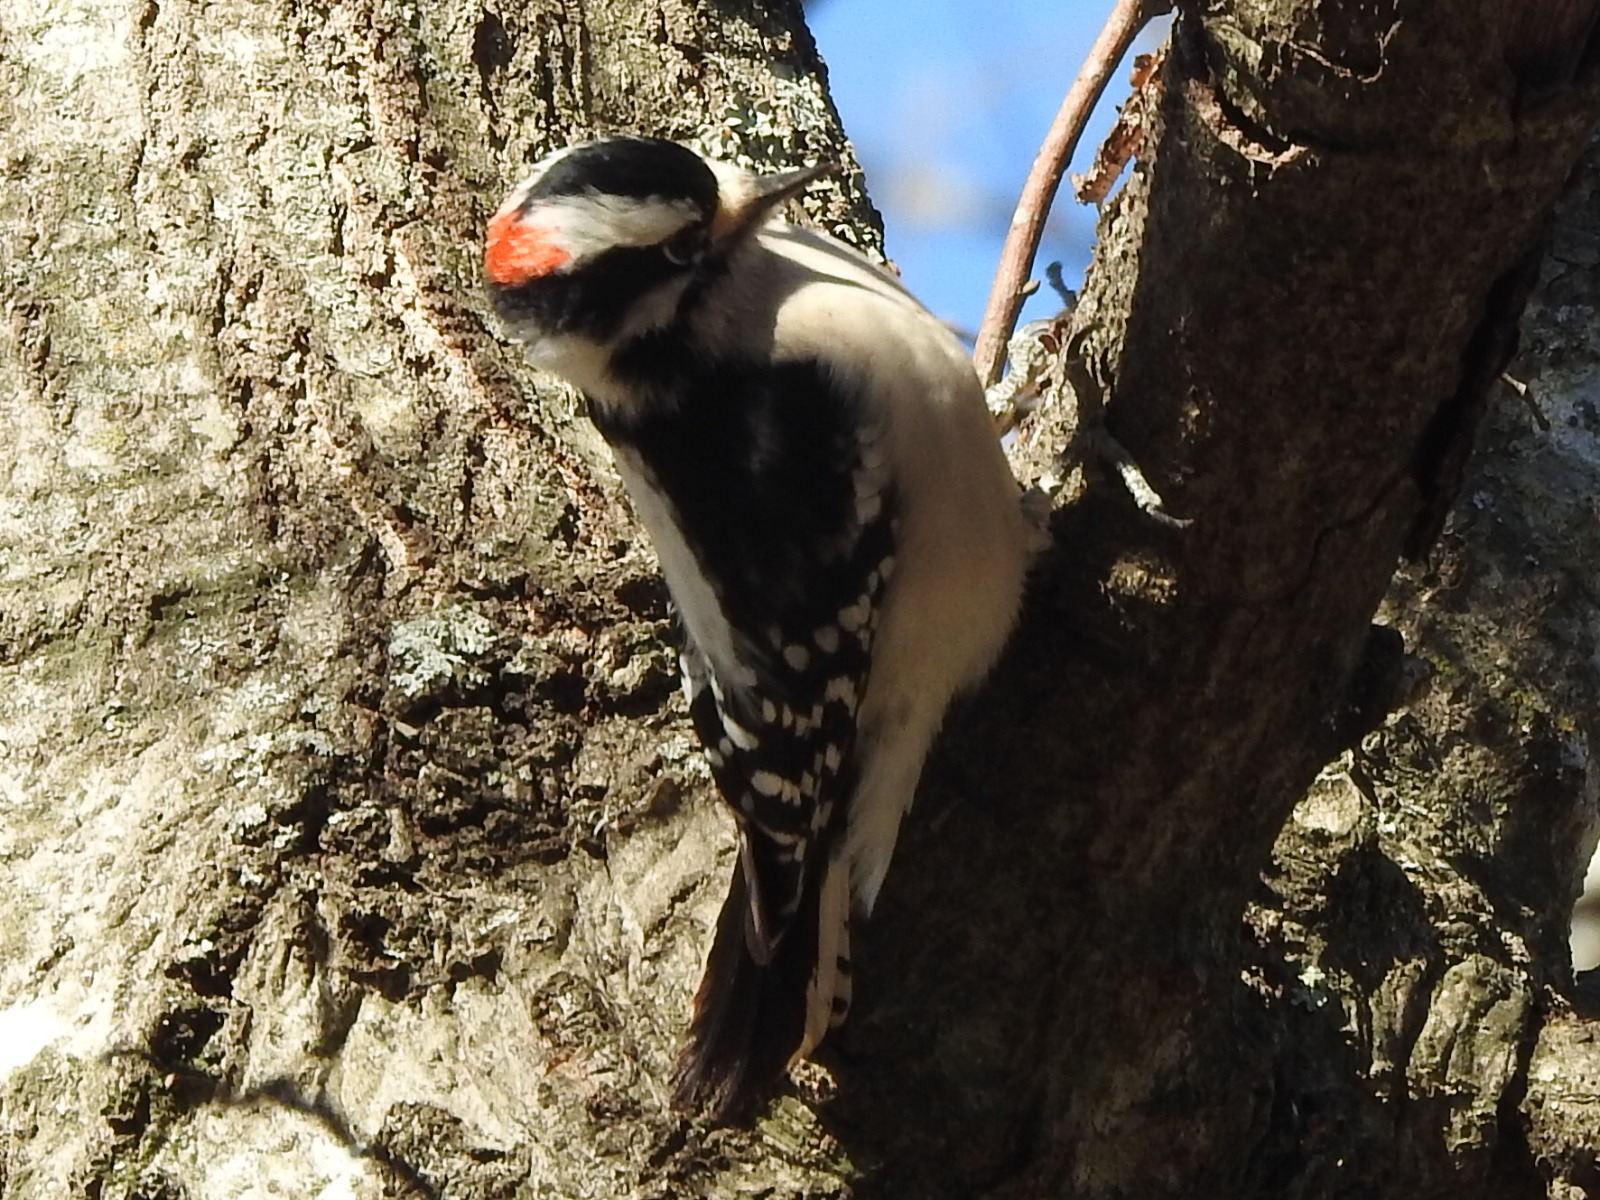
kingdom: Animalia
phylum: Chordata
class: Aves
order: Piciformes
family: Picidae
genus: Dryobates
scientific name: Dryobates pubescens
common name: Downy woodpecker
